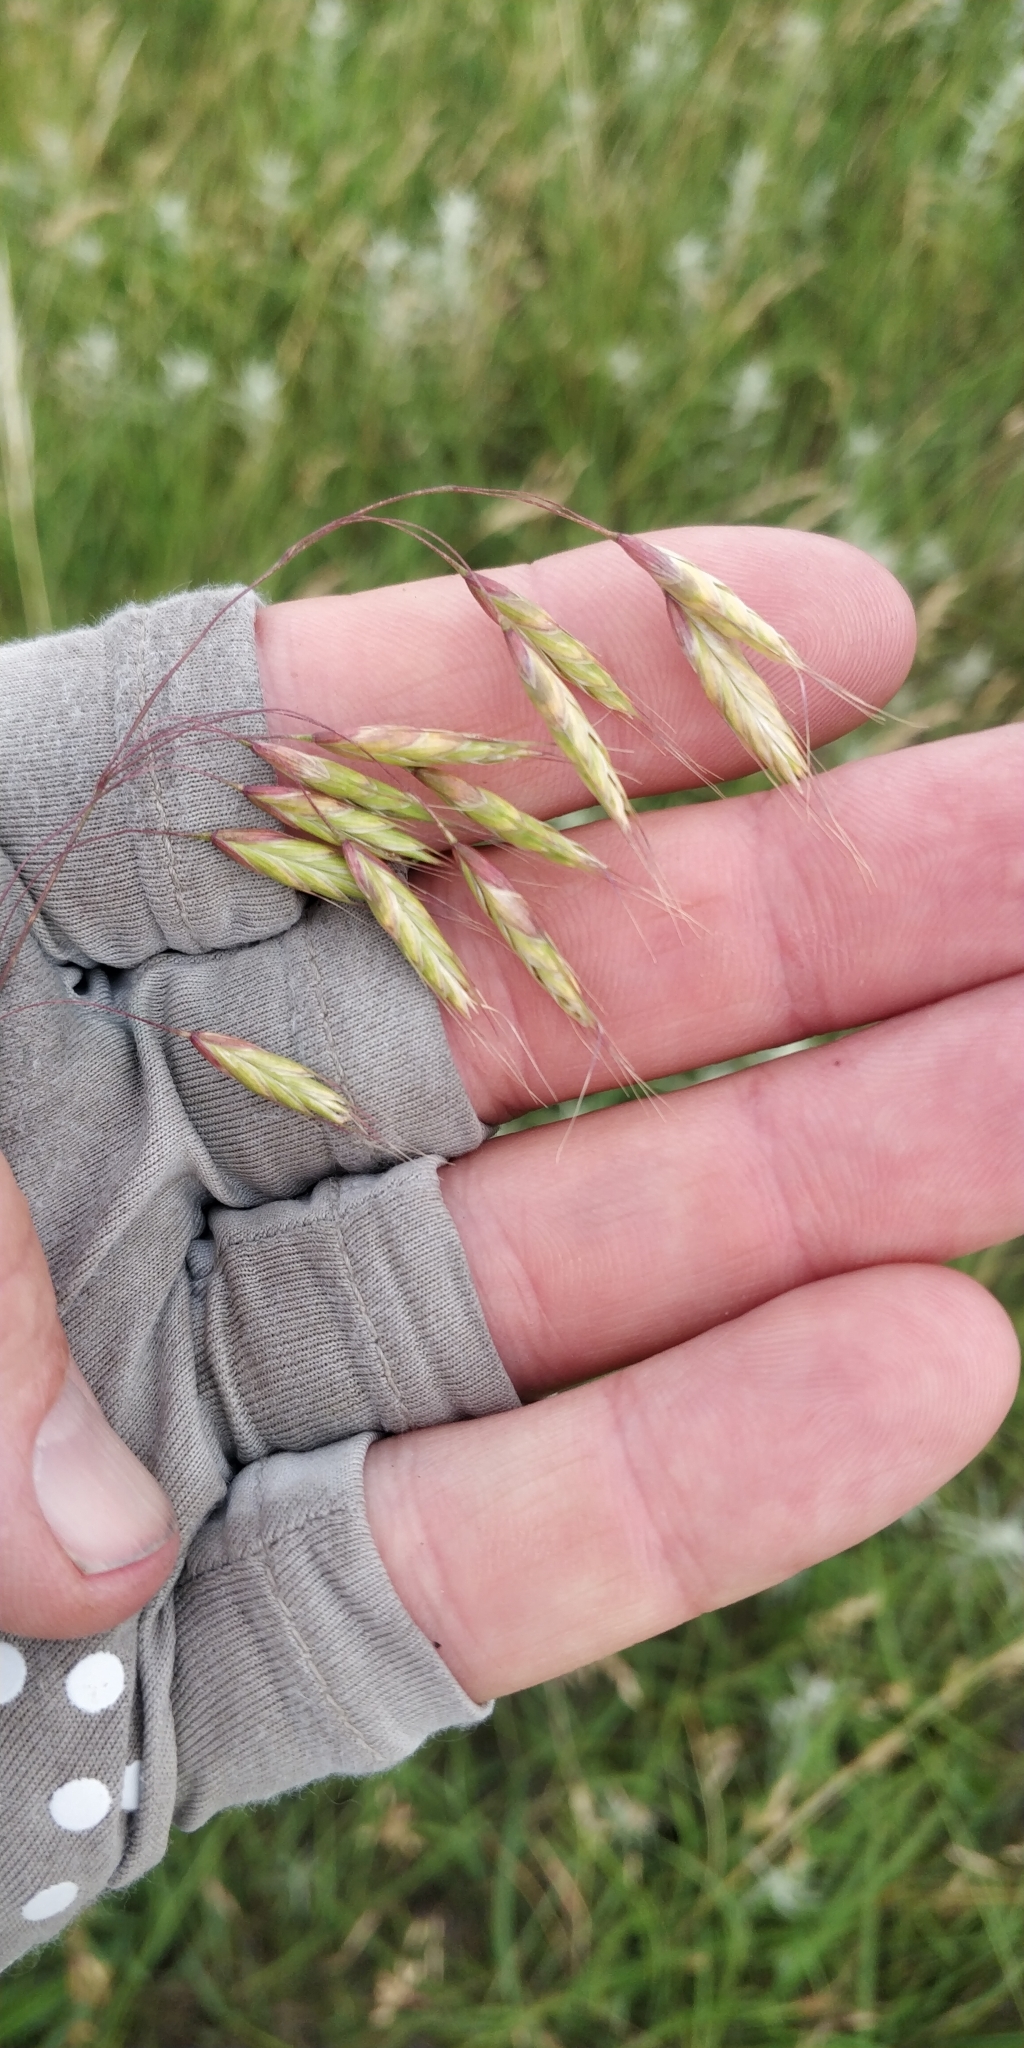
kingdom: Plantae
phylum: Tracheophyta
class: Liliopsida
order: Poales
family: Poaceae
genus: Bromus
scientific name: Bromus japonicus
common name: Japanese brome
